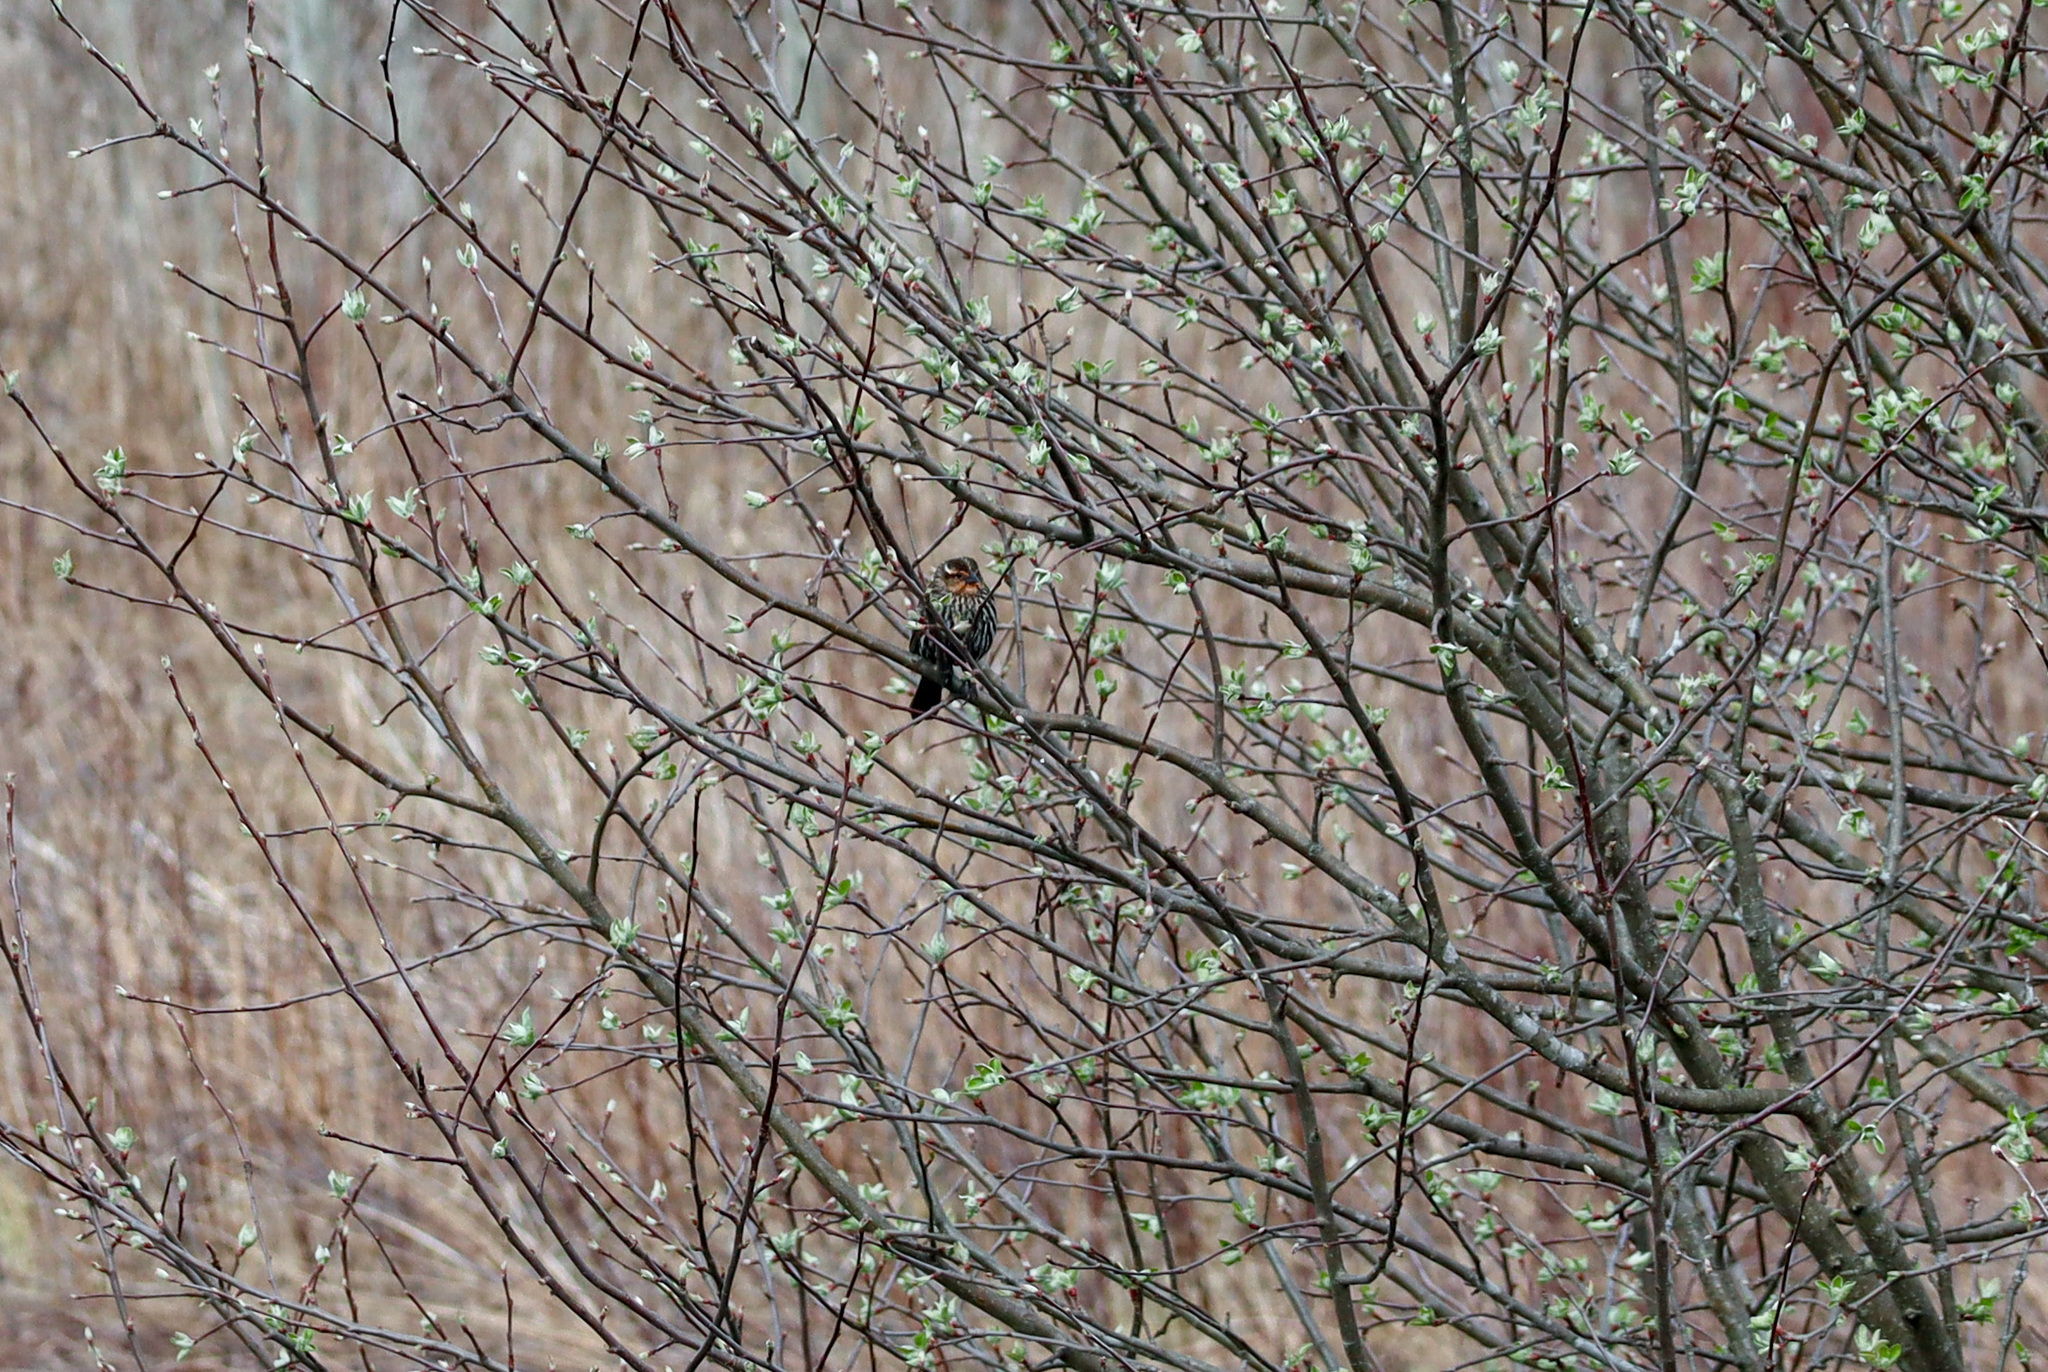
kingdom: Animalia
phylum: Chordata
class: Aves
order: Passeriformes
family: Icteridae
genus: Agelaius
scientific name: Agelaius phoeniceus
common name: Red-winged blackbird
